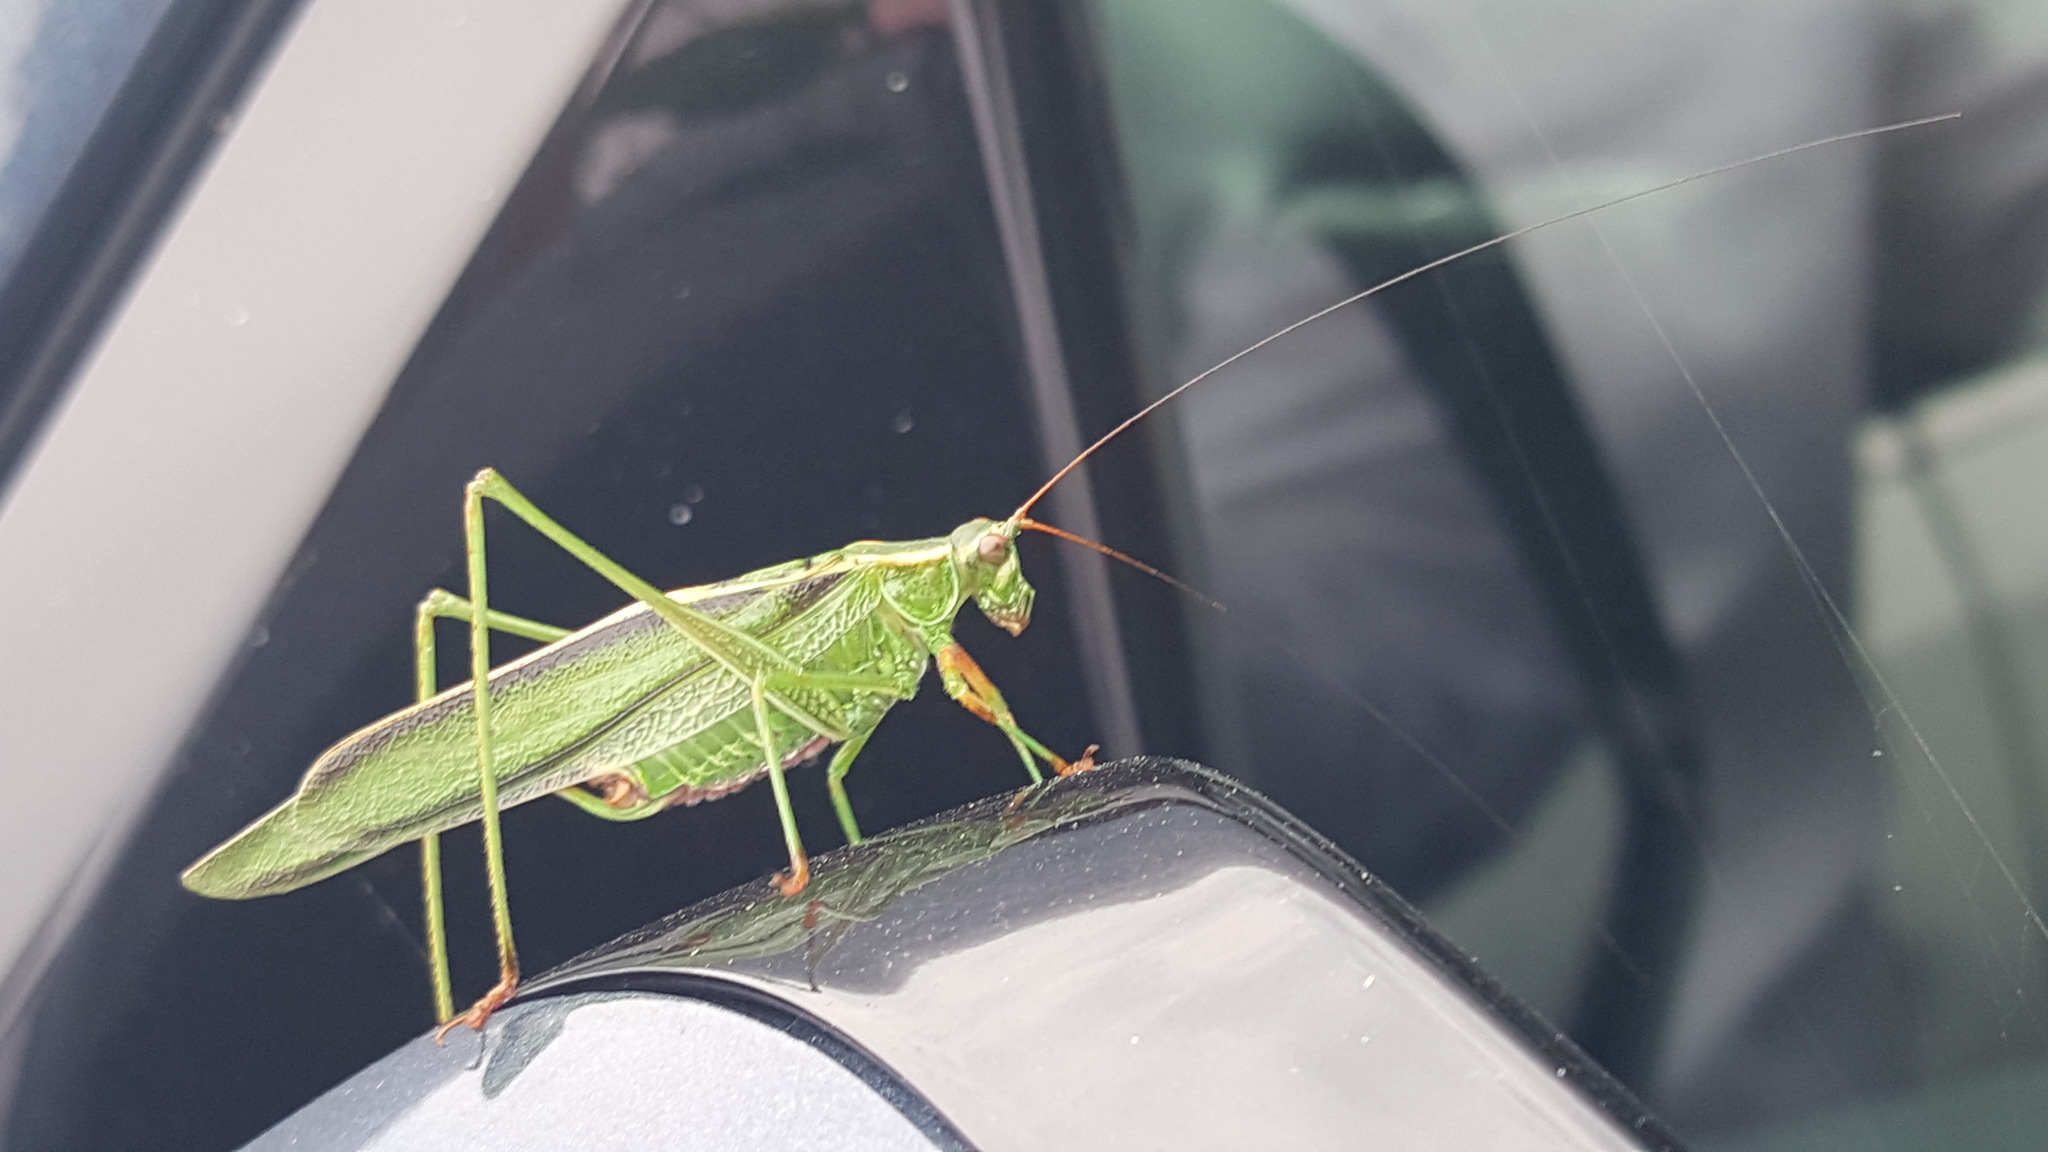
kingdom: Animalia
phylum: Arthropoda
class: Insecta
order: Orthoptera
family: Tettigoniidae
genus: Scudderia
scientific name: Scudderia fasciata
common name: Treetop bush katydid
